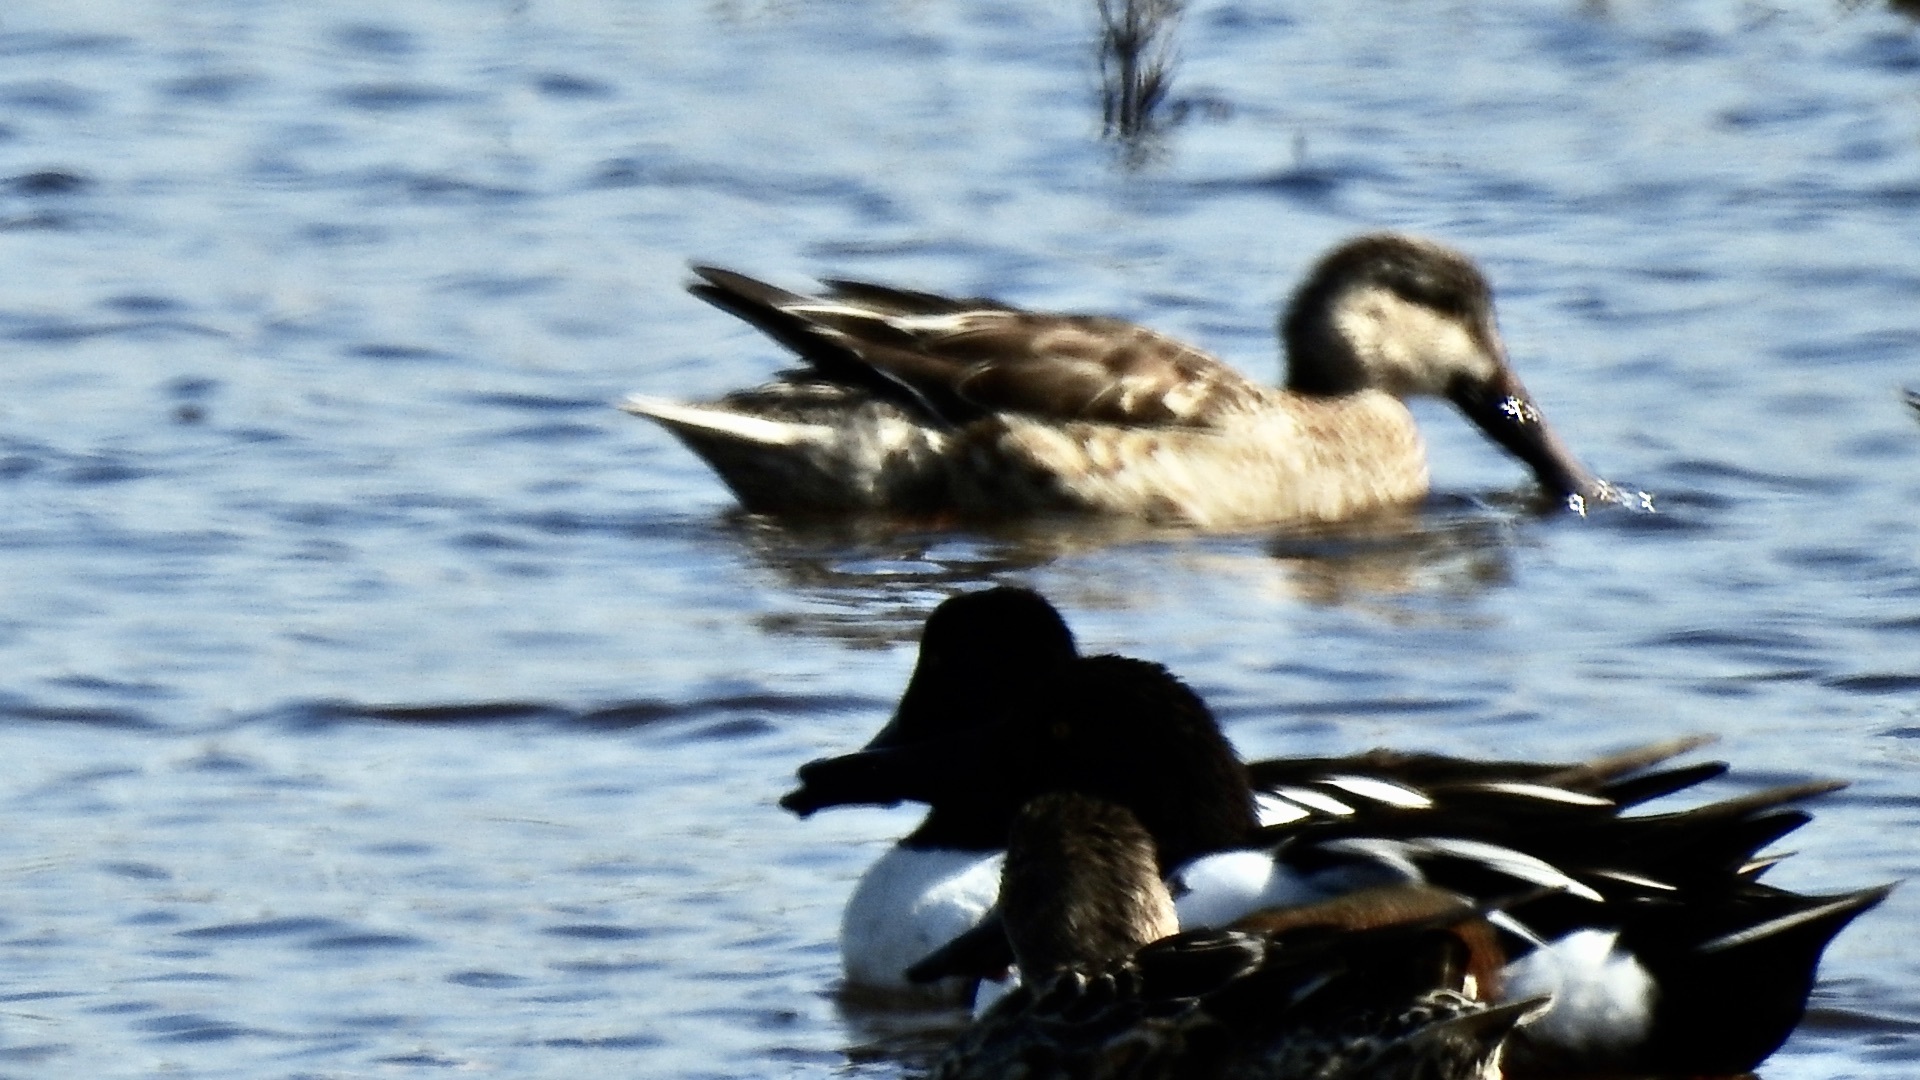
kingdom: Animalia
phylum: Chordata
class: Aves
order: Anseriformes
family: Anatidae
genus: Spatula
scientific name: Spatula clypeata
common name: Northern shoveler
